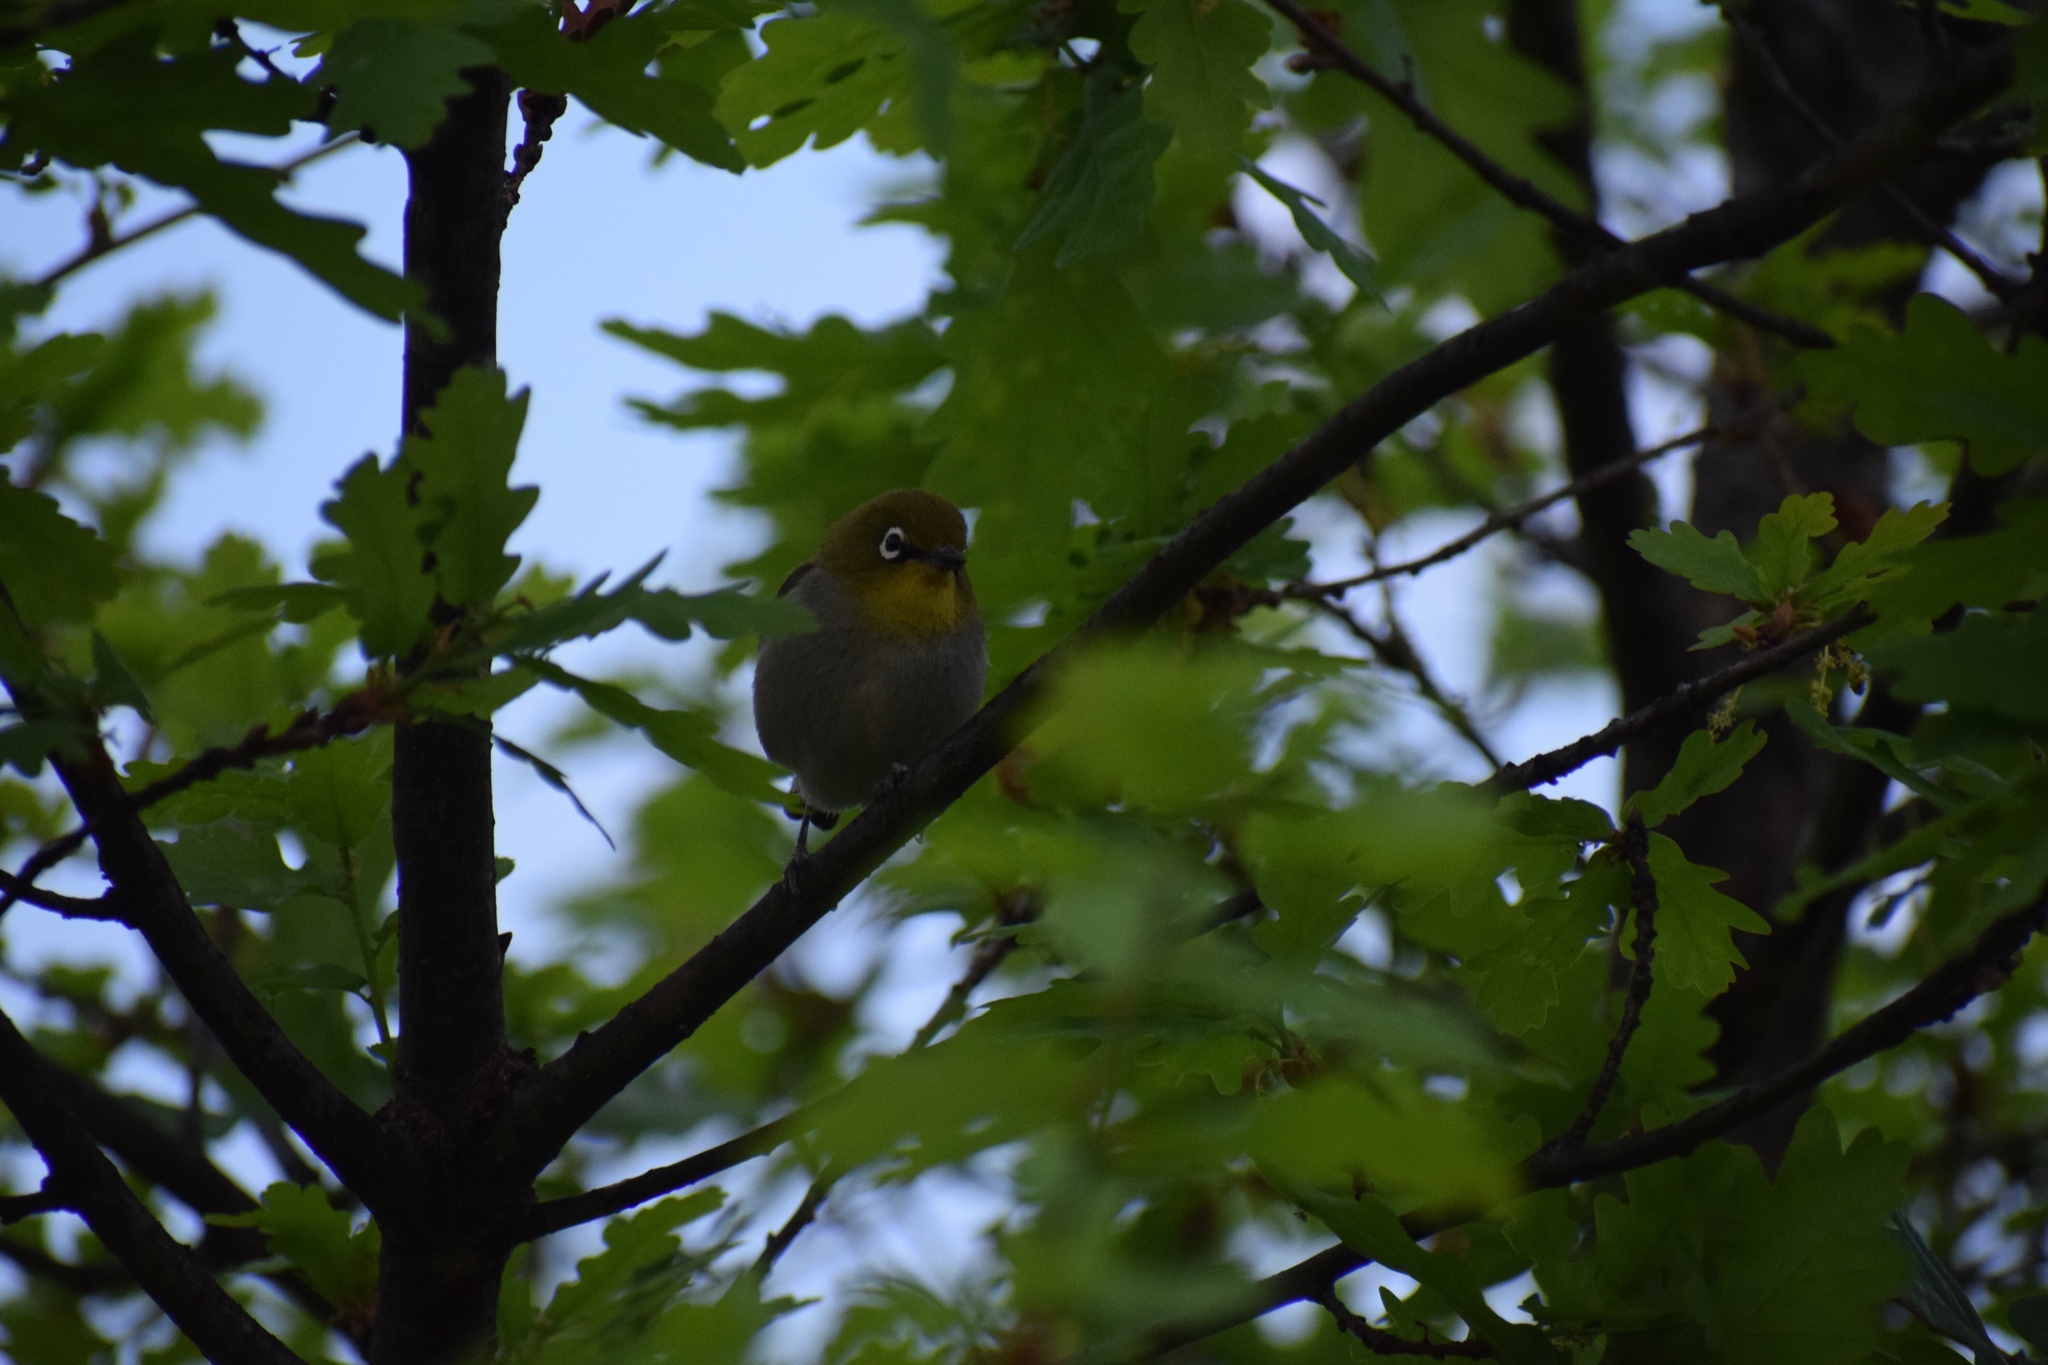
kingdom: Animalia
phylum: Chordata
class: Aves
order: Passeriformes
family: Zosteropidae
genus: Zosterops
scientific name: Zosterops virens
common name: Cape white-eye
